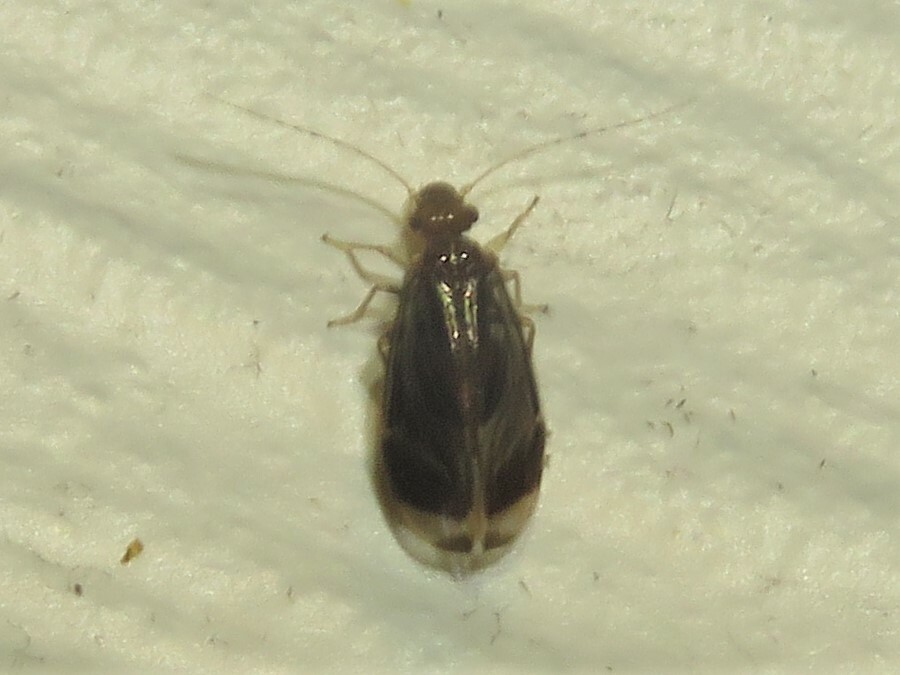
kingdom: Animalia
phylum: Arthropoda
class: Insecta
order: Psocodea
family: Amphipsocidae
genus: Polypsocus
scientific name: Polypsocus corruptus
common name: Corrupt barklouse
